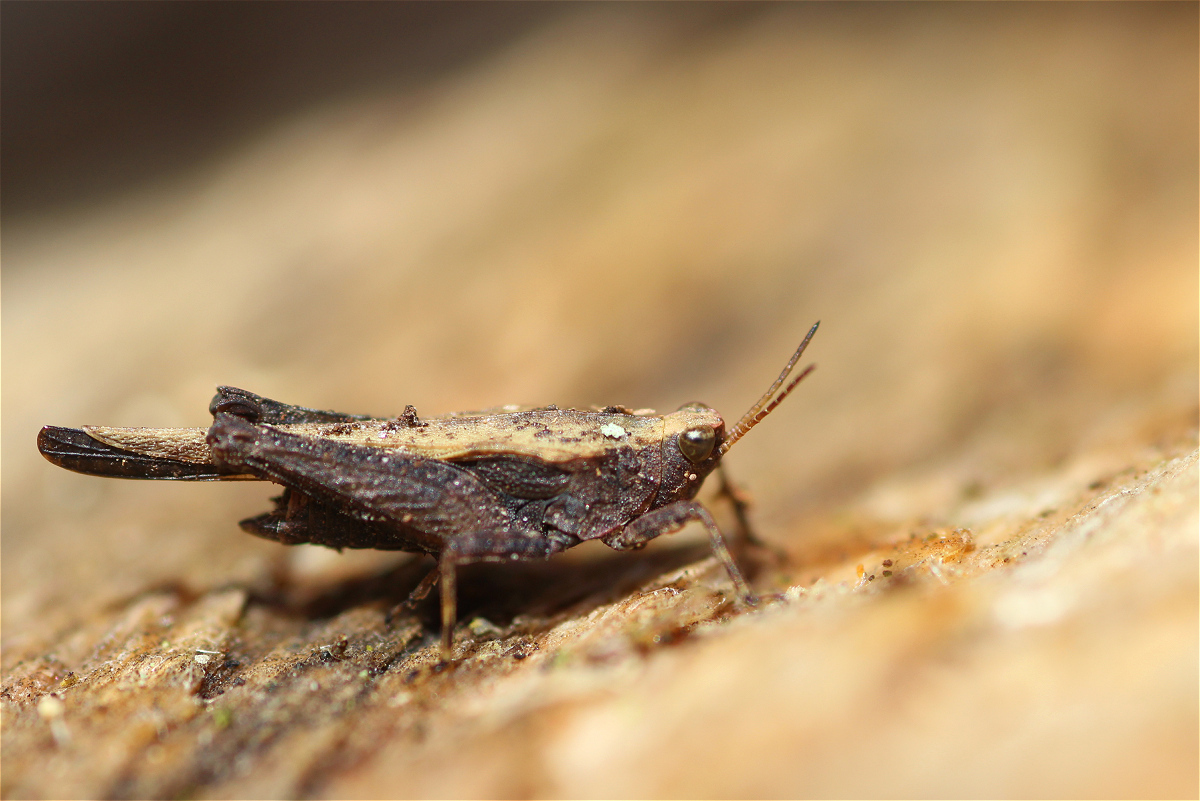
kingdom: Animalia
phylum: Arthropoda
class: Insecta
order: Orthoptera
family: Tetrigidae
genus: Tetrix
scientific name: Tetrix subulata
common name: Slender ground-hopper
